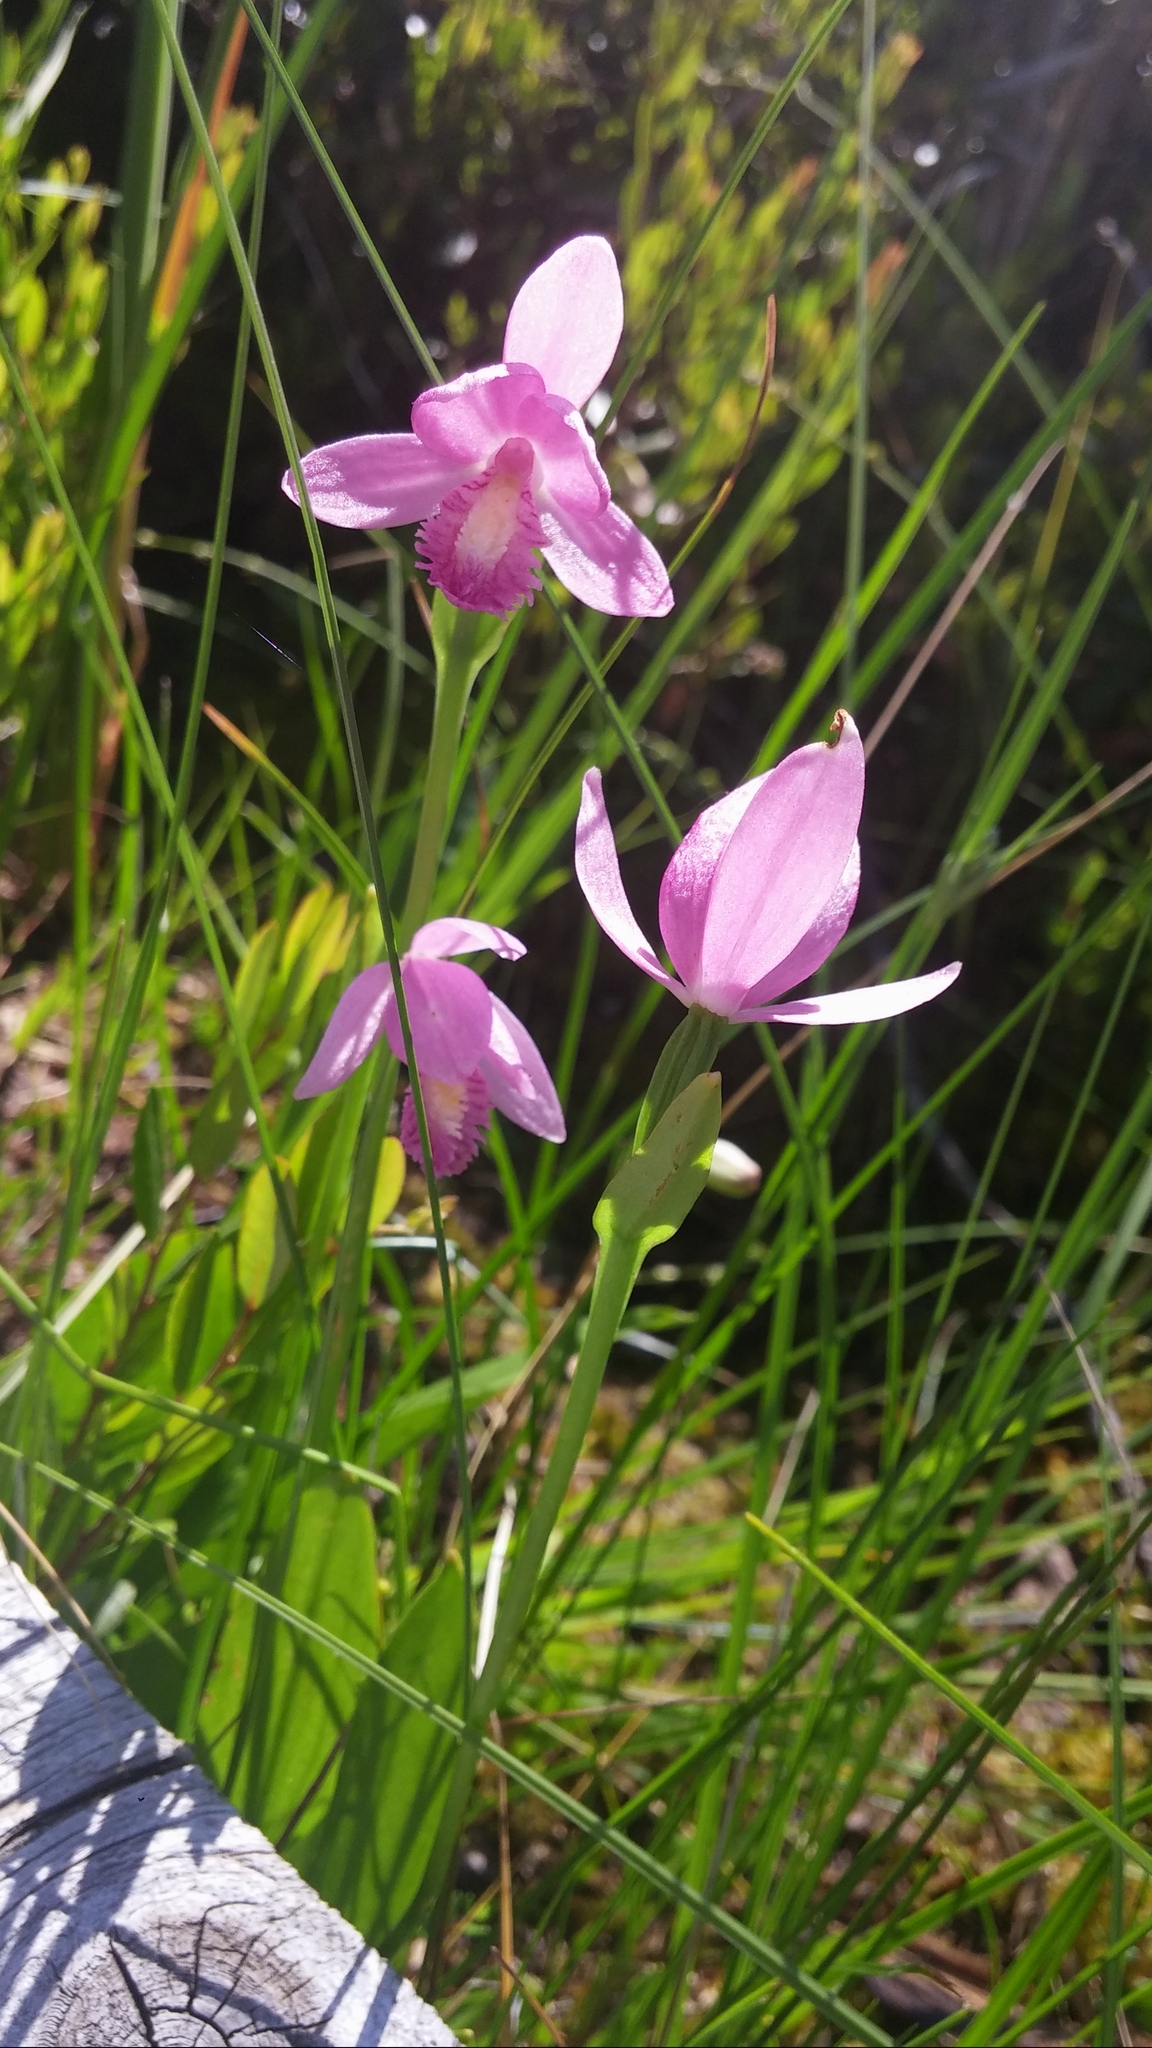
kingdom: Plantae
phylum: Tracheophyta
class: Liliopsida
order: Asparagales
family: Orchidaceae
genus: Pogonia
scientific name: Pogonia ophioglossoides
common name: Rose pogonia
